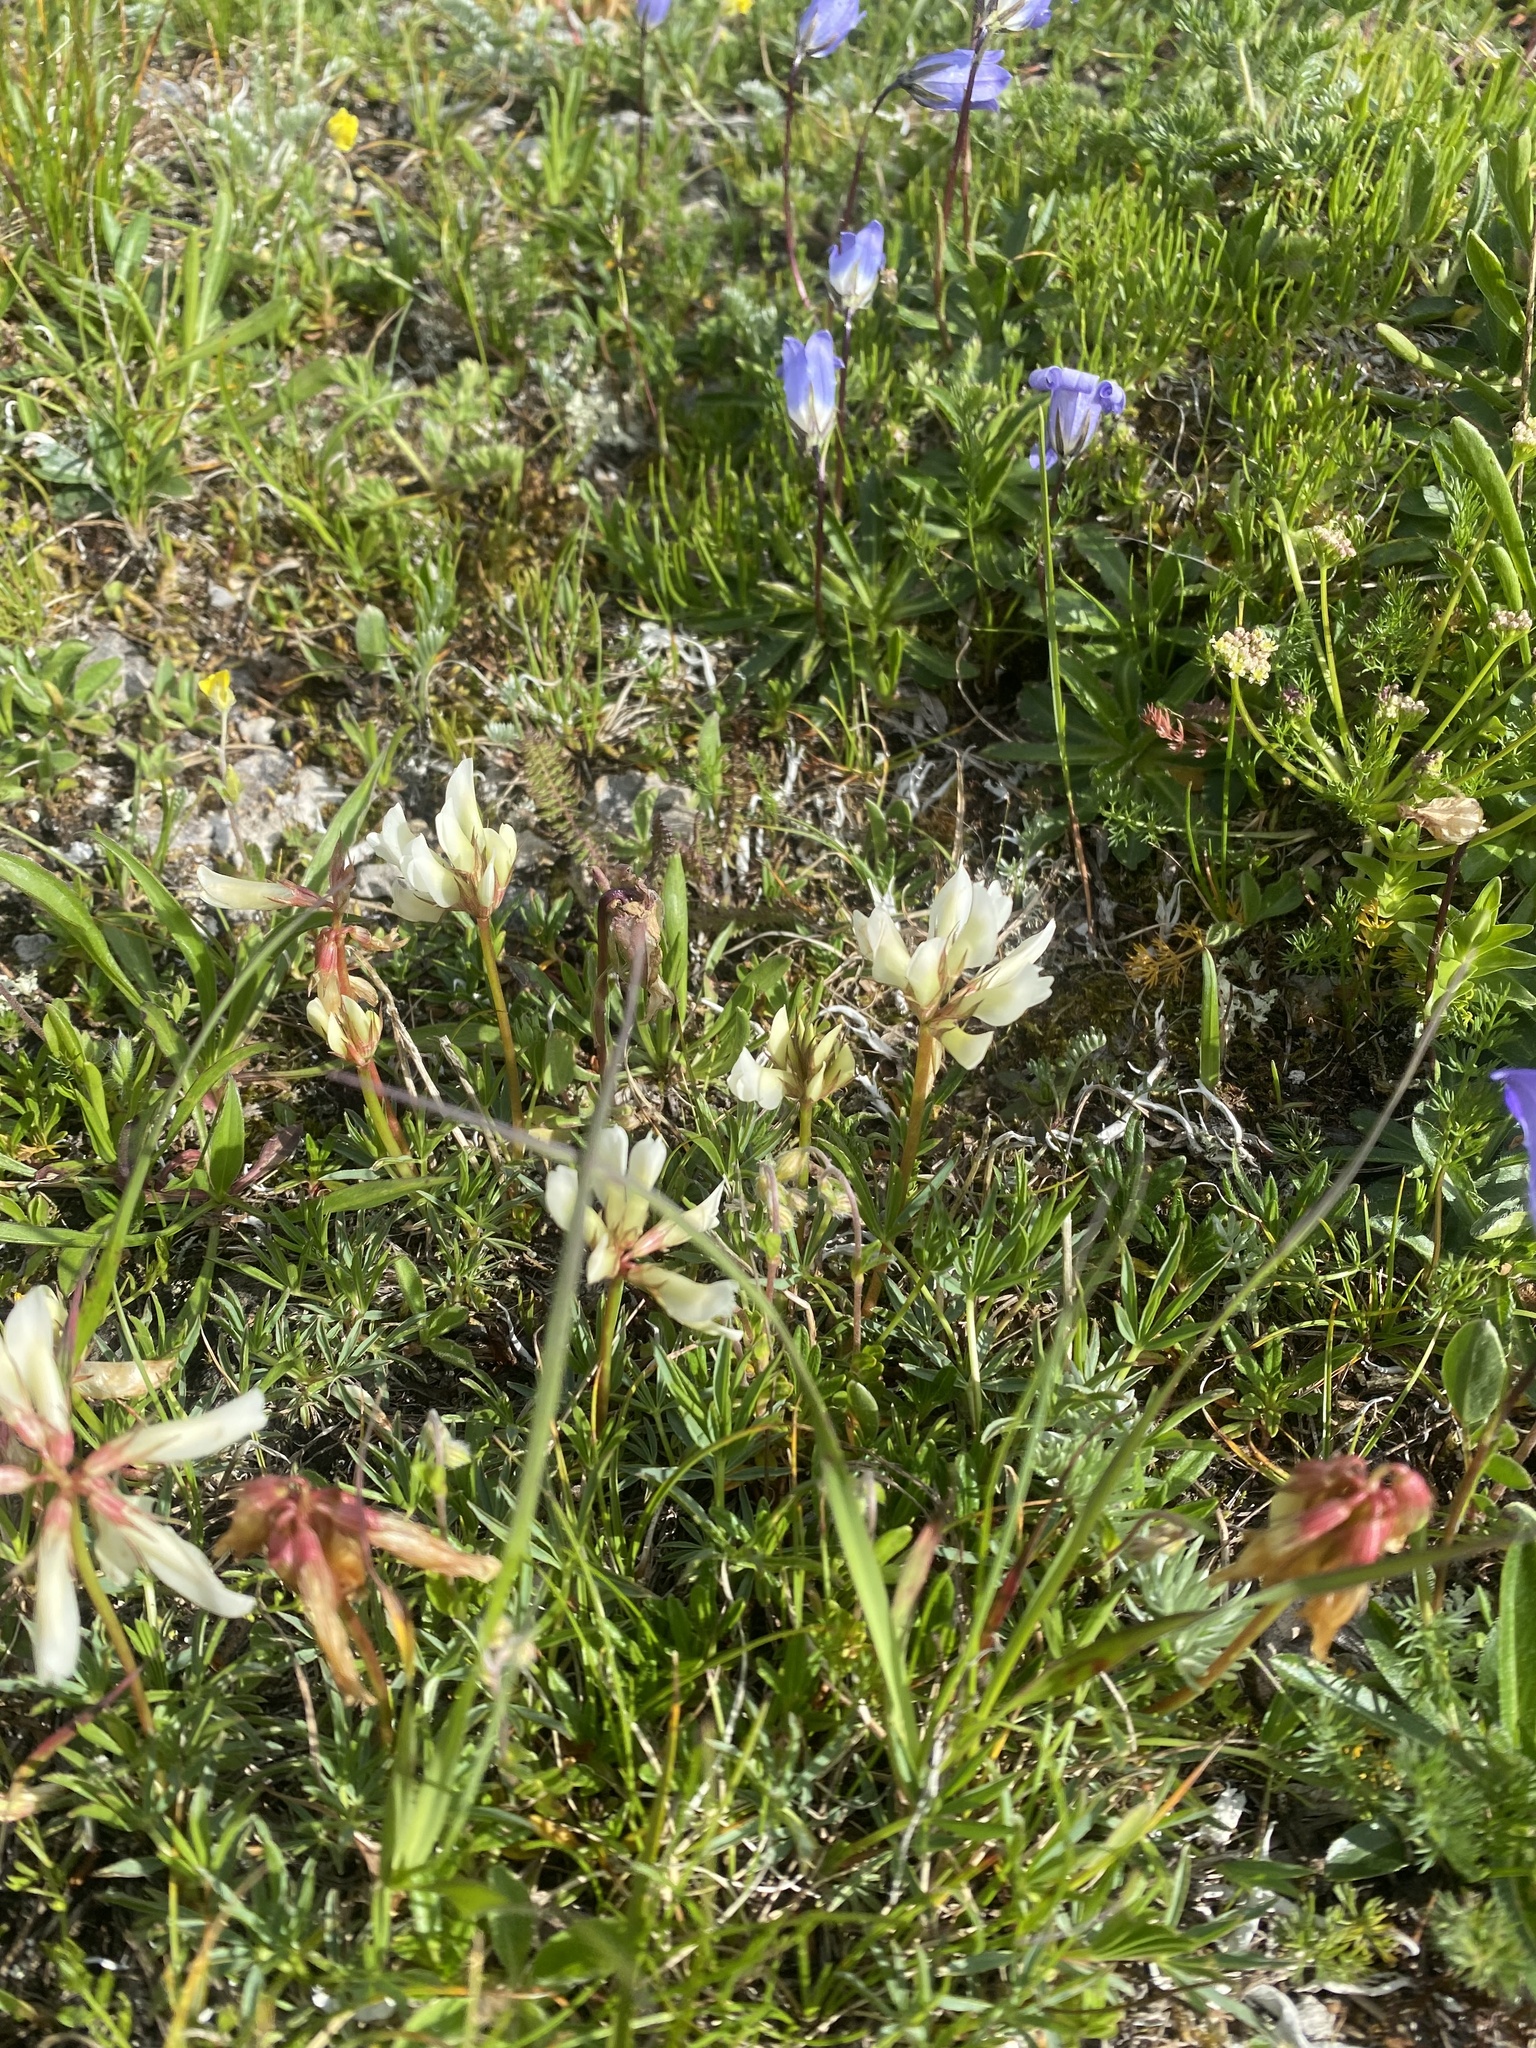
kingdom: Plantae
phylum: Tracheophyta
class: Magnoliopsida
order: Fabales
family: Fabaceae
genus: Trifolium
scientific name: Trifolium polyphyllum
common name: Many-leaf clover
